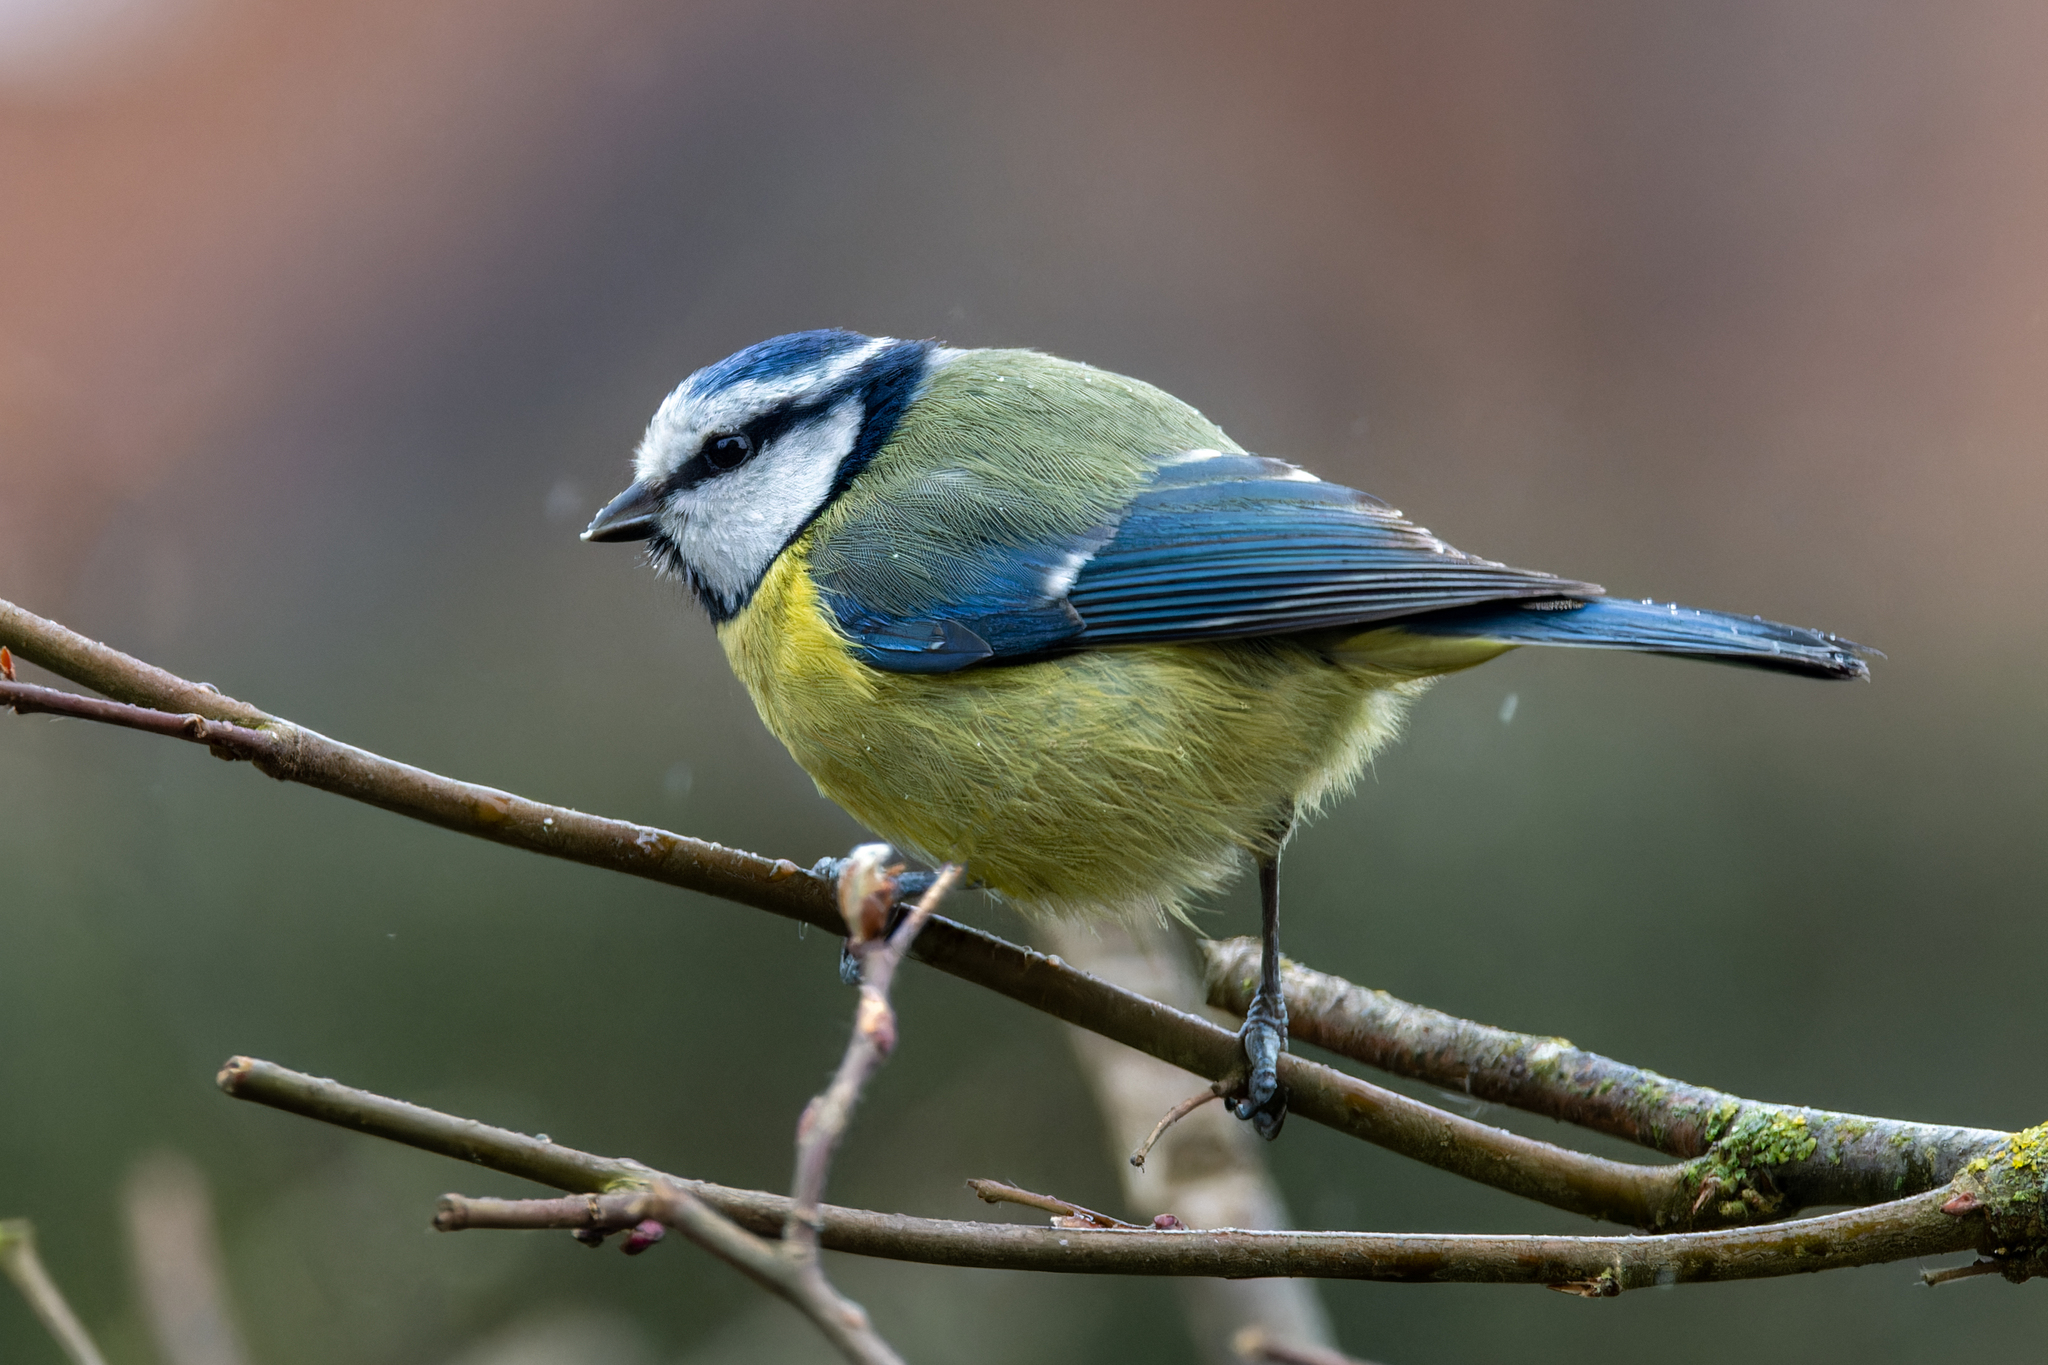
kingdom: Animalia
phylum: Chordata
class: Aves
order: Passeriformes
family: Paridae
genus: Cyanistes
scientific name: Cyanistes caeruleus
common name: Eurasian blue tit
